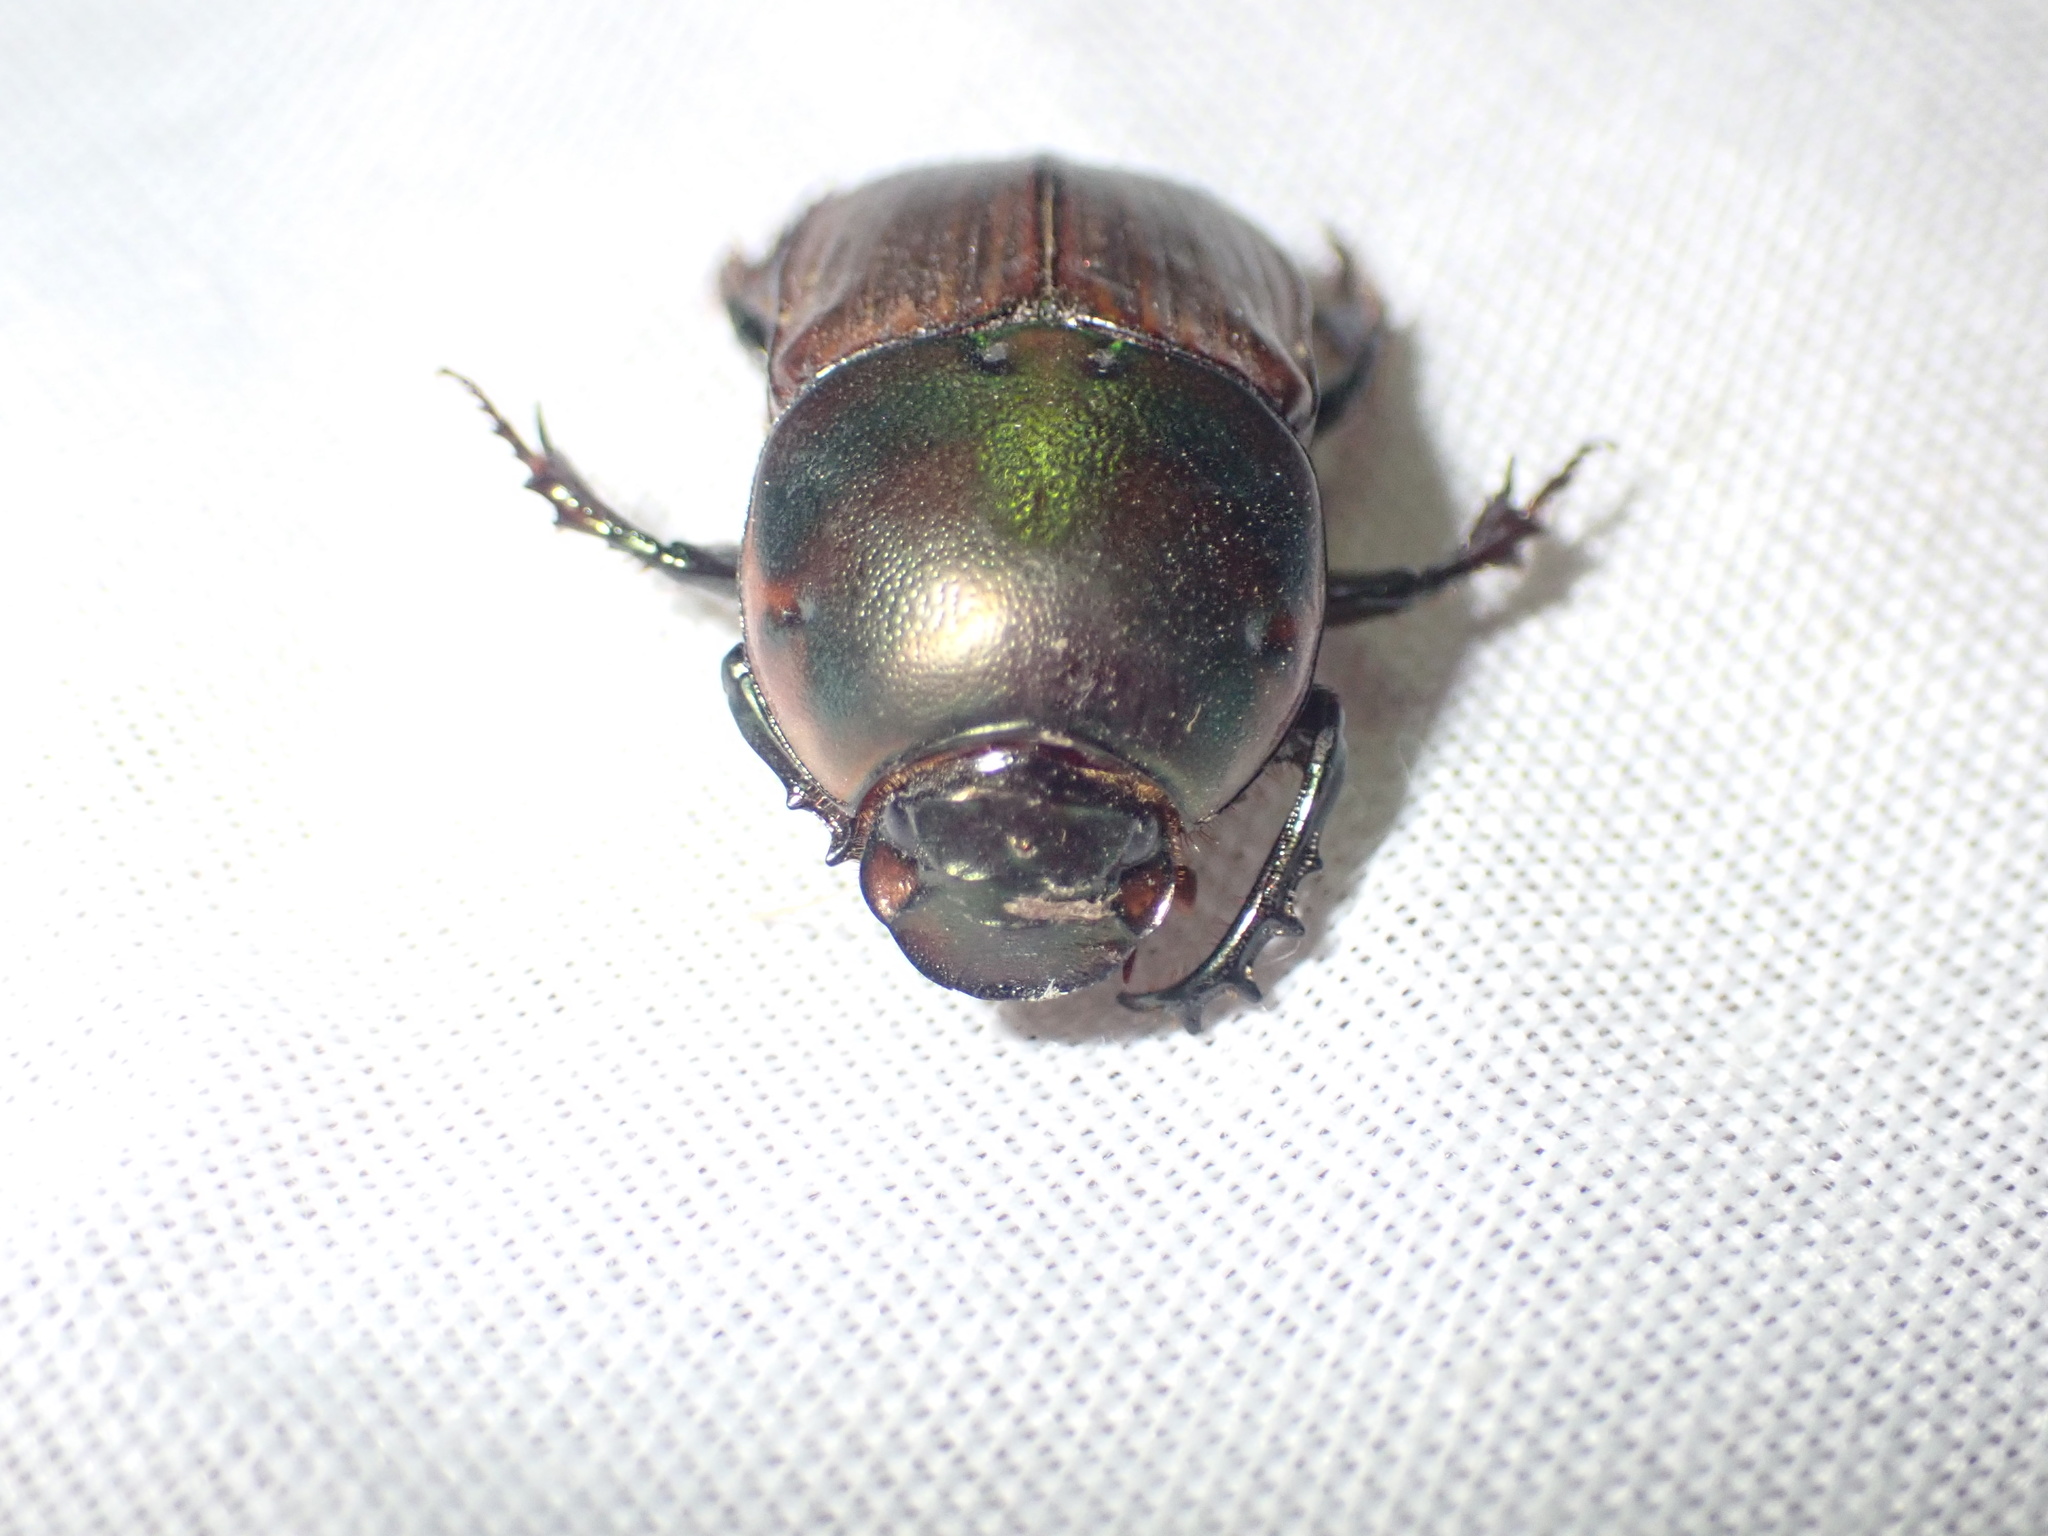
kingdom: Animalia
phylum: Arthropoda
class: Insecta
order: Coleoptera
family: Scarabaeidae
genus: Onitis
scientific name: Onitis alexis
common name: Alexis dung beetle
